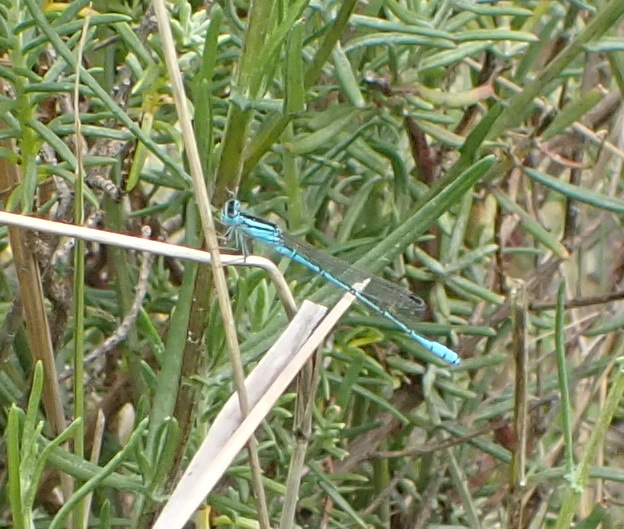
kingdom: Animalia
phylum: Arthropoda
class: Insecta
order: Odonata
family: Coenagrionidae
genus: Africallagma
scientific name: Africallagma glaucum
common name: Swamp bluet
